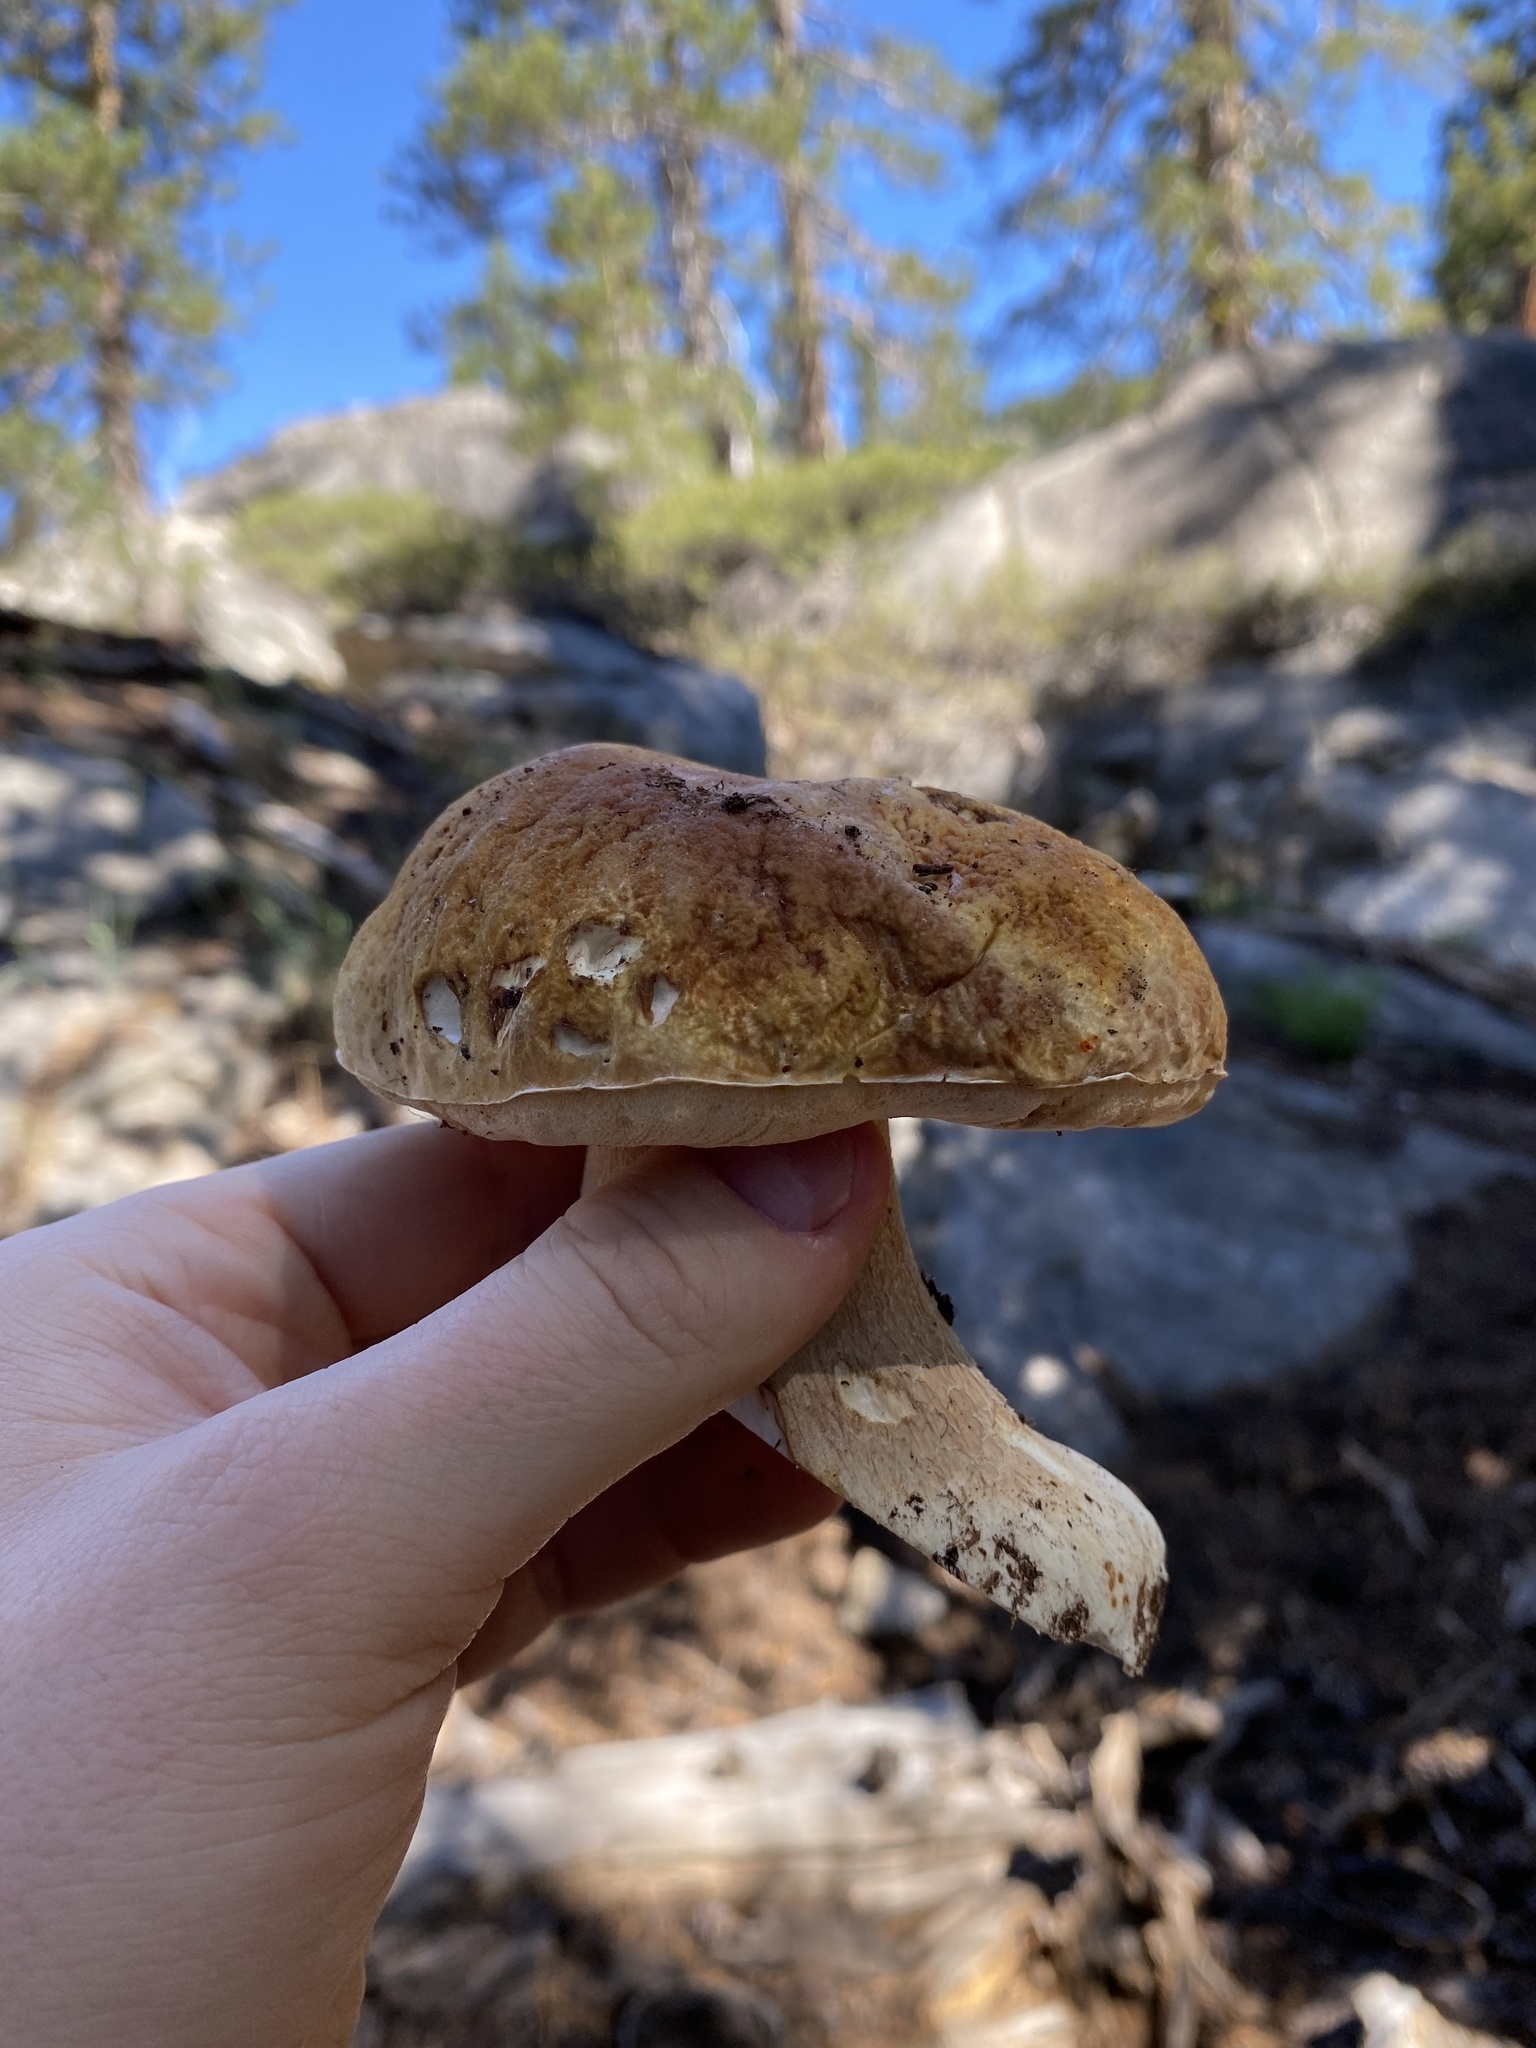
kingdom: Fungi
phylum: Basidiomycota
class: Agaricomycetes
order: Boletales
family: Boletaceae
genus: Boletus
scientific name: Boletus edulis
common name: Cep
